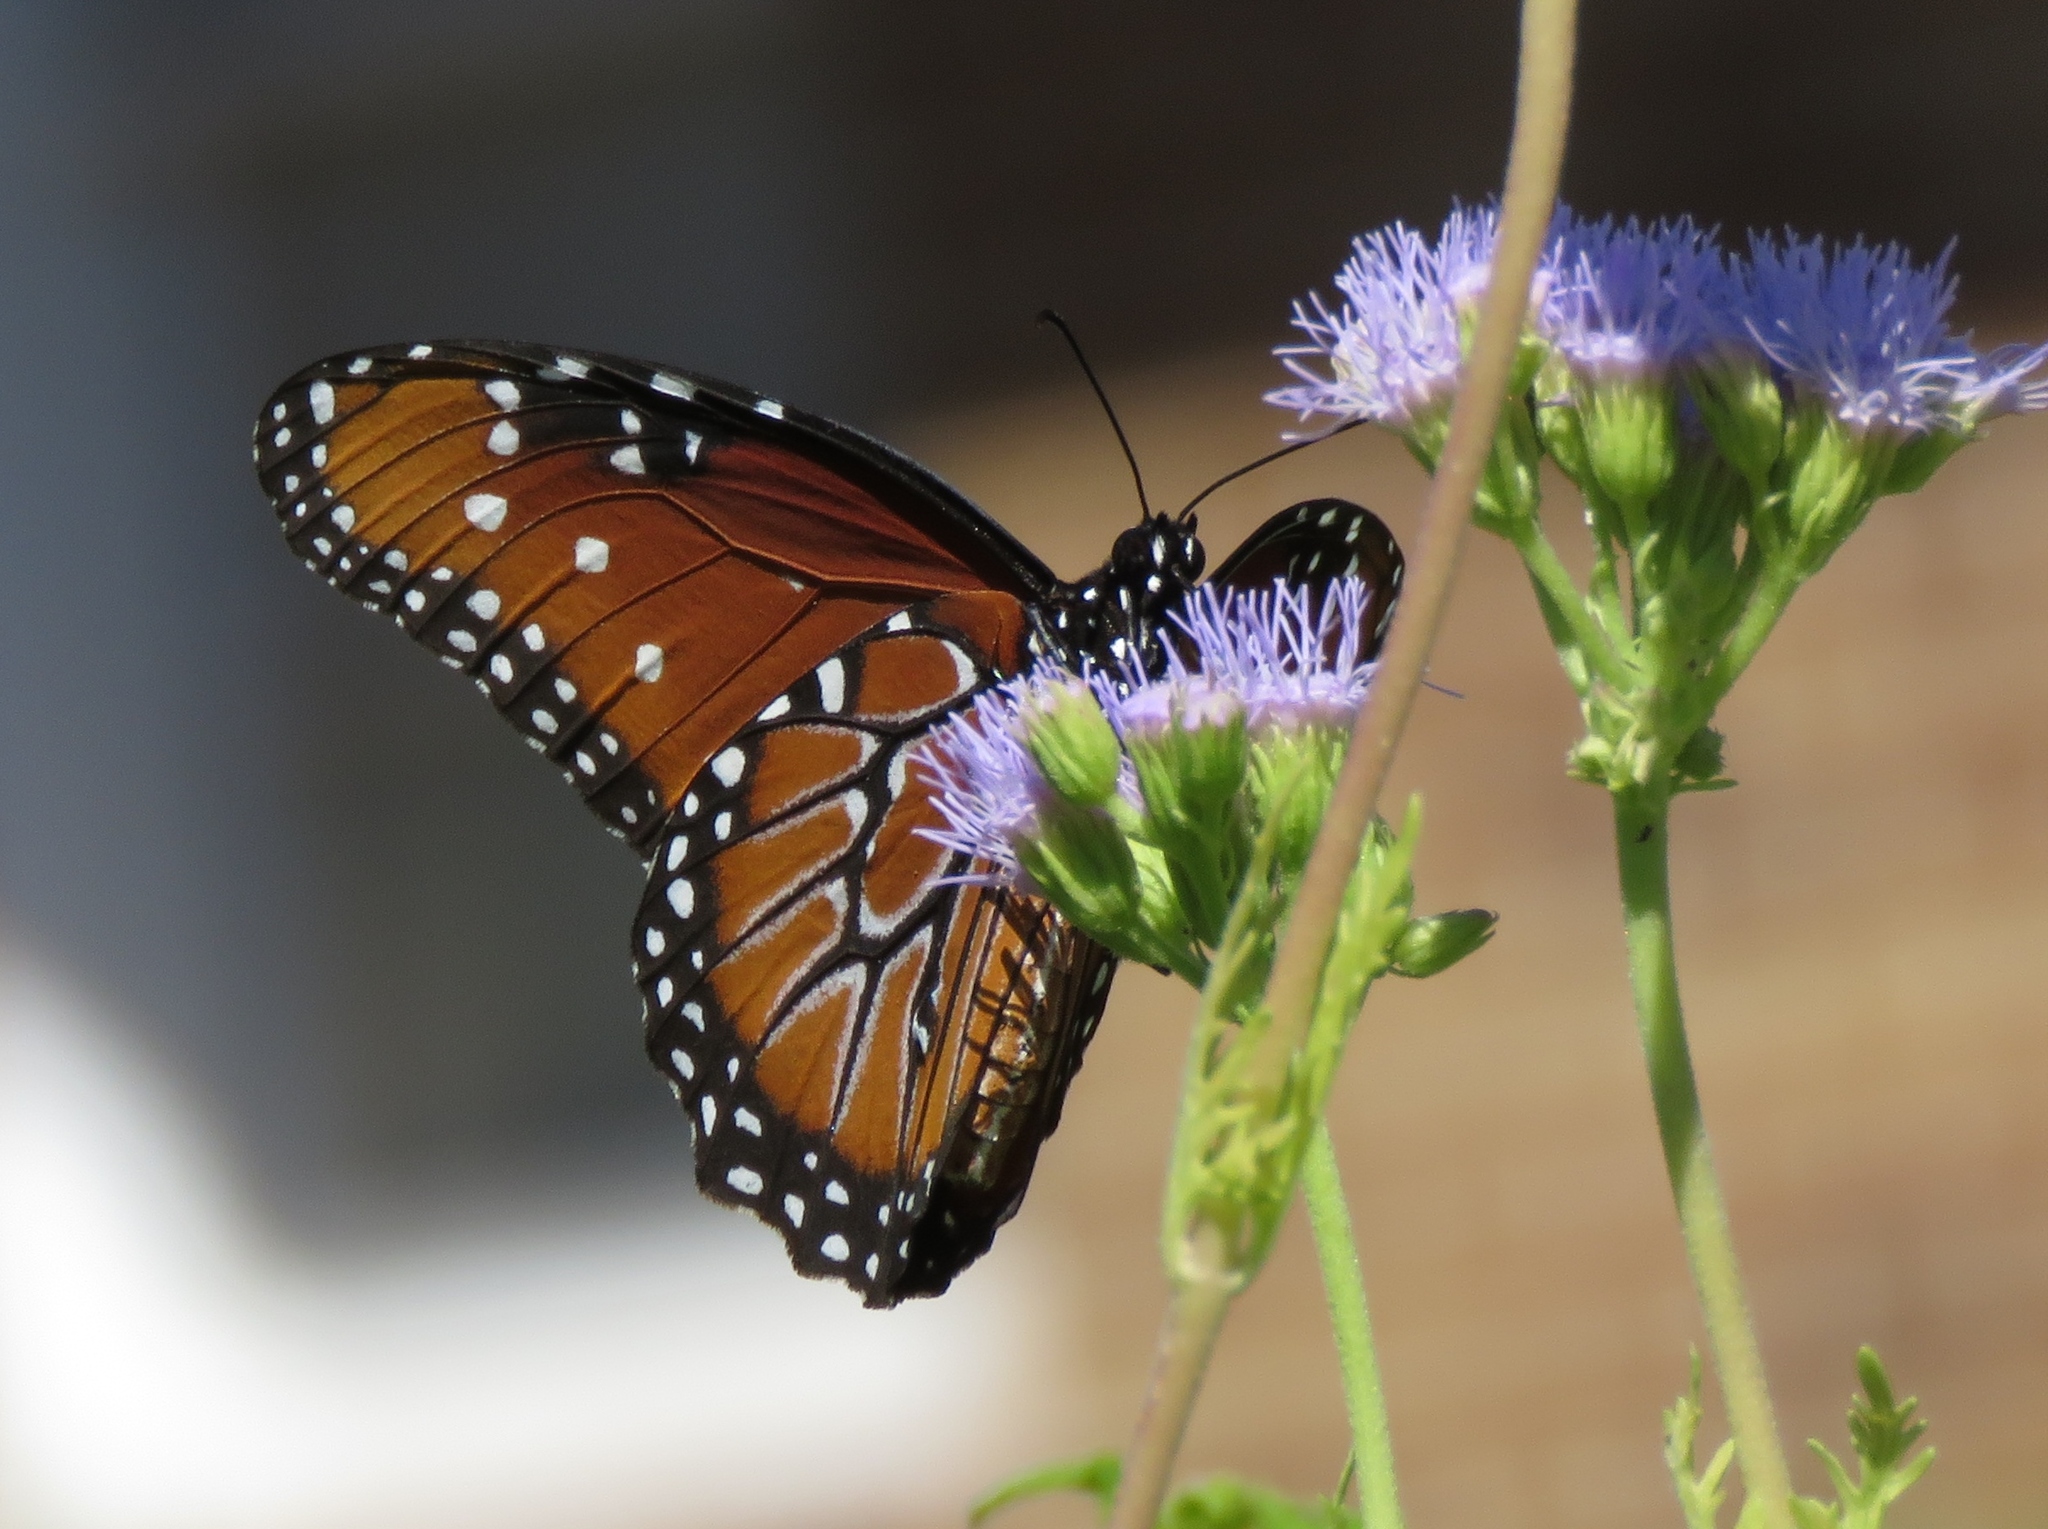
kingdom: Animalia
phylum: Arthropoda
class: Insecta
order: Lepidoptera
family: Nymphalidae
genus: Danaus
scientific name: Danaus gilippus
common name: Queen
